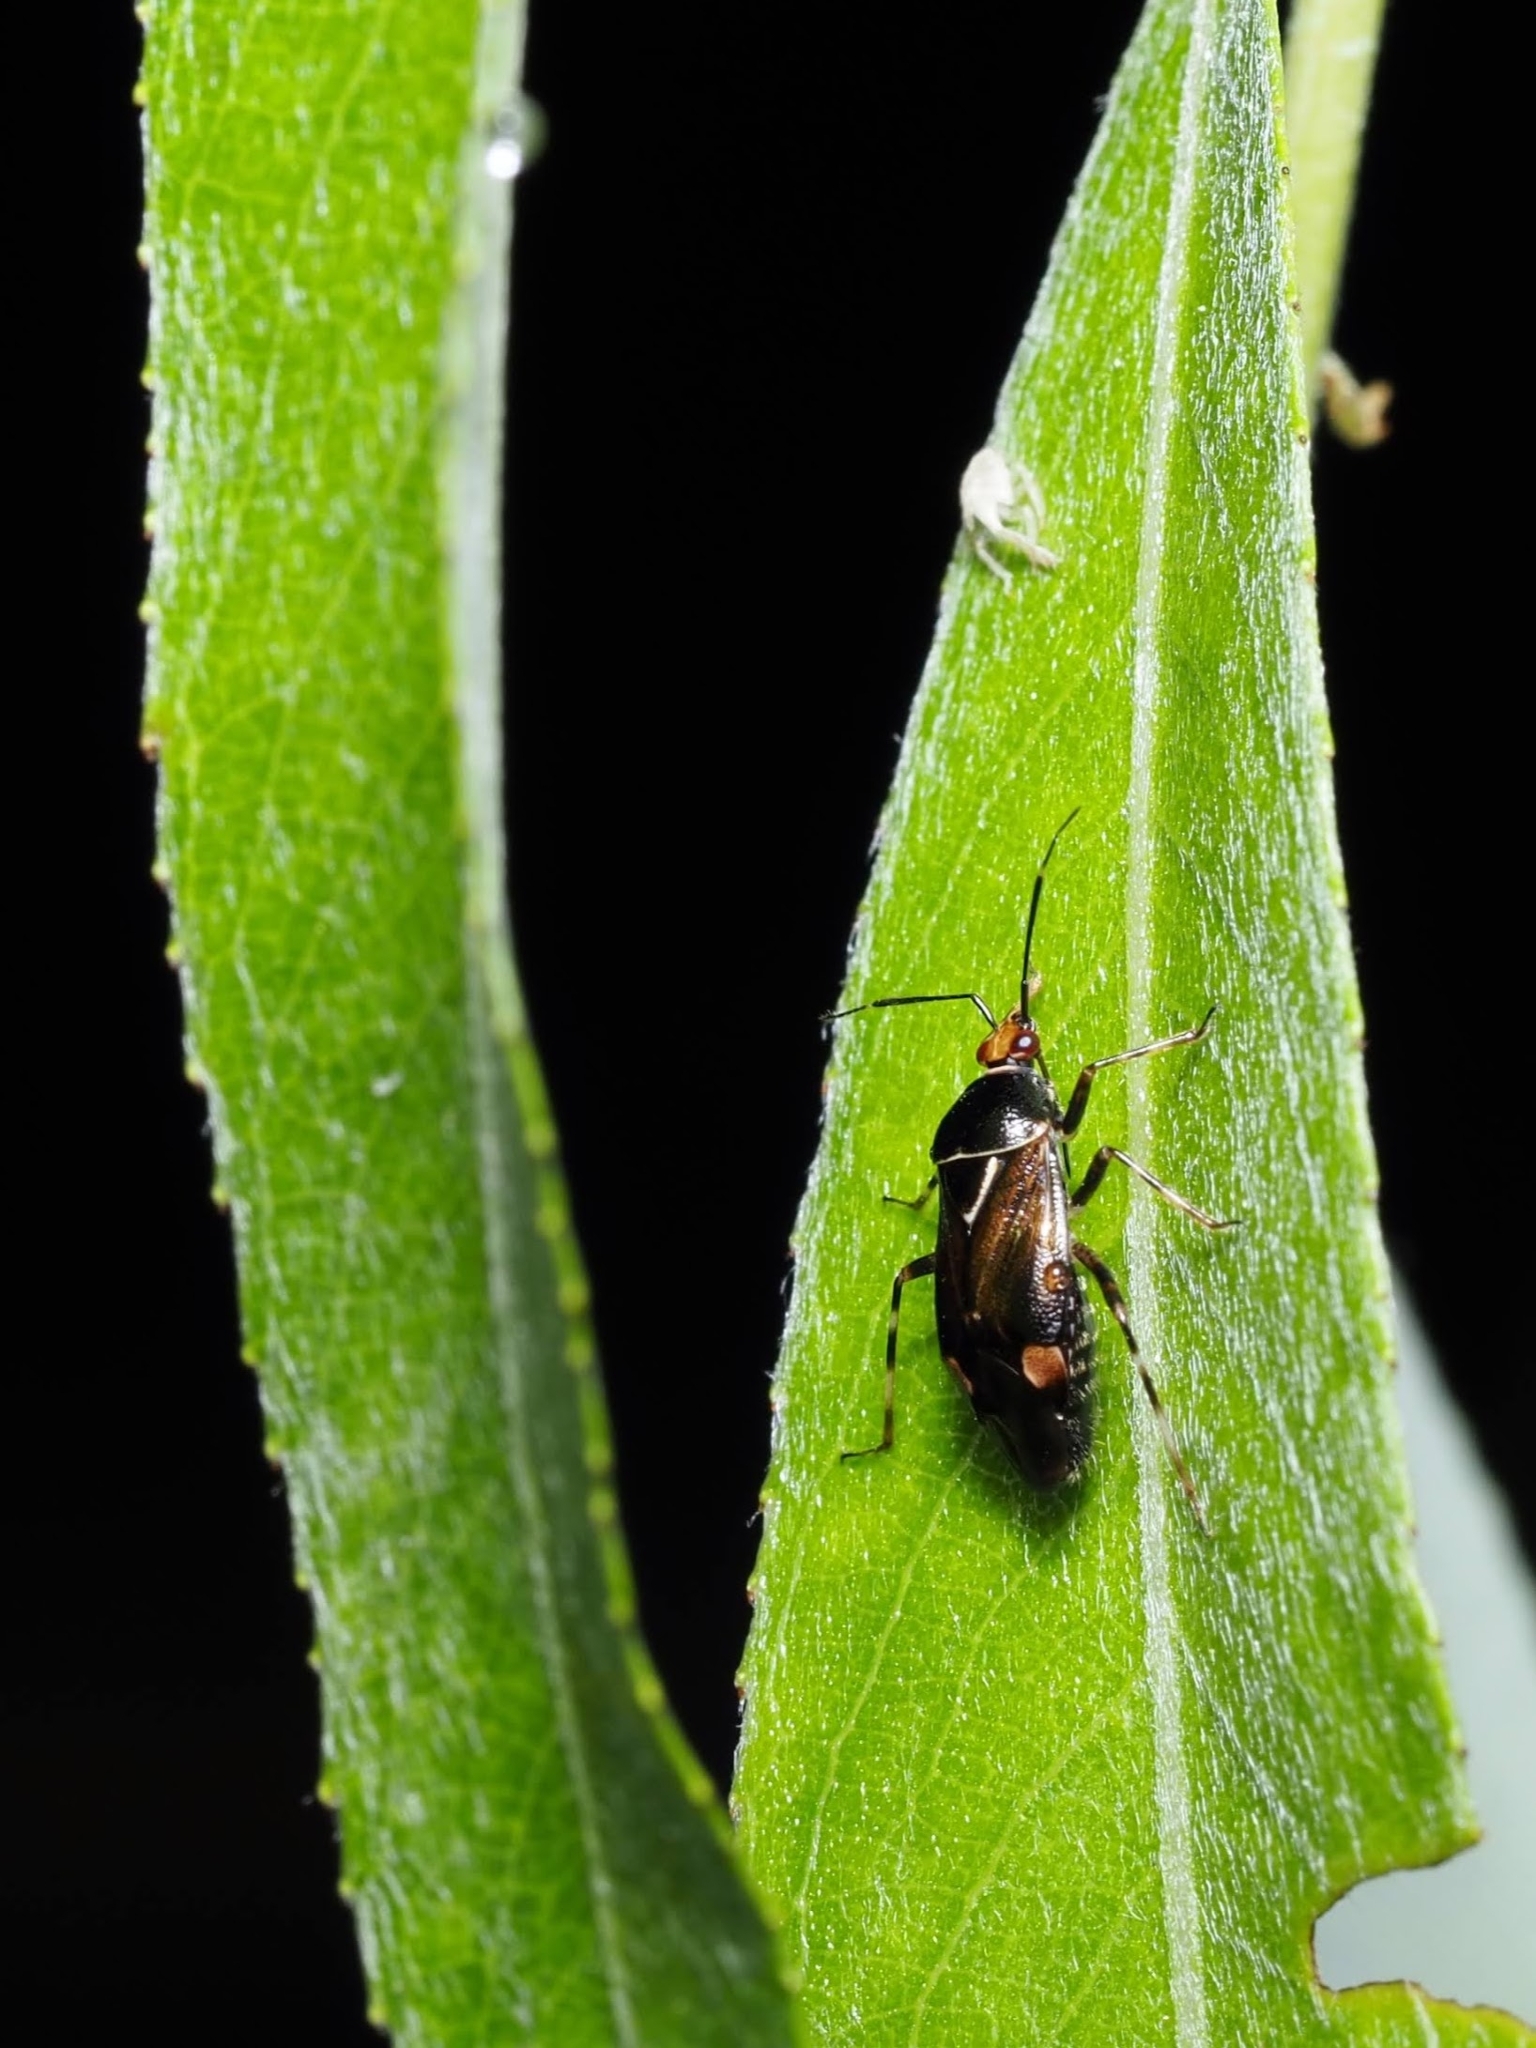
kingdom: Animalia
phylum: Arthropoda
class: Insecta
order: Hemiptera
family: Miridae
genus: Deraeocoris
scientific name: Deraeocoris flavilinea
